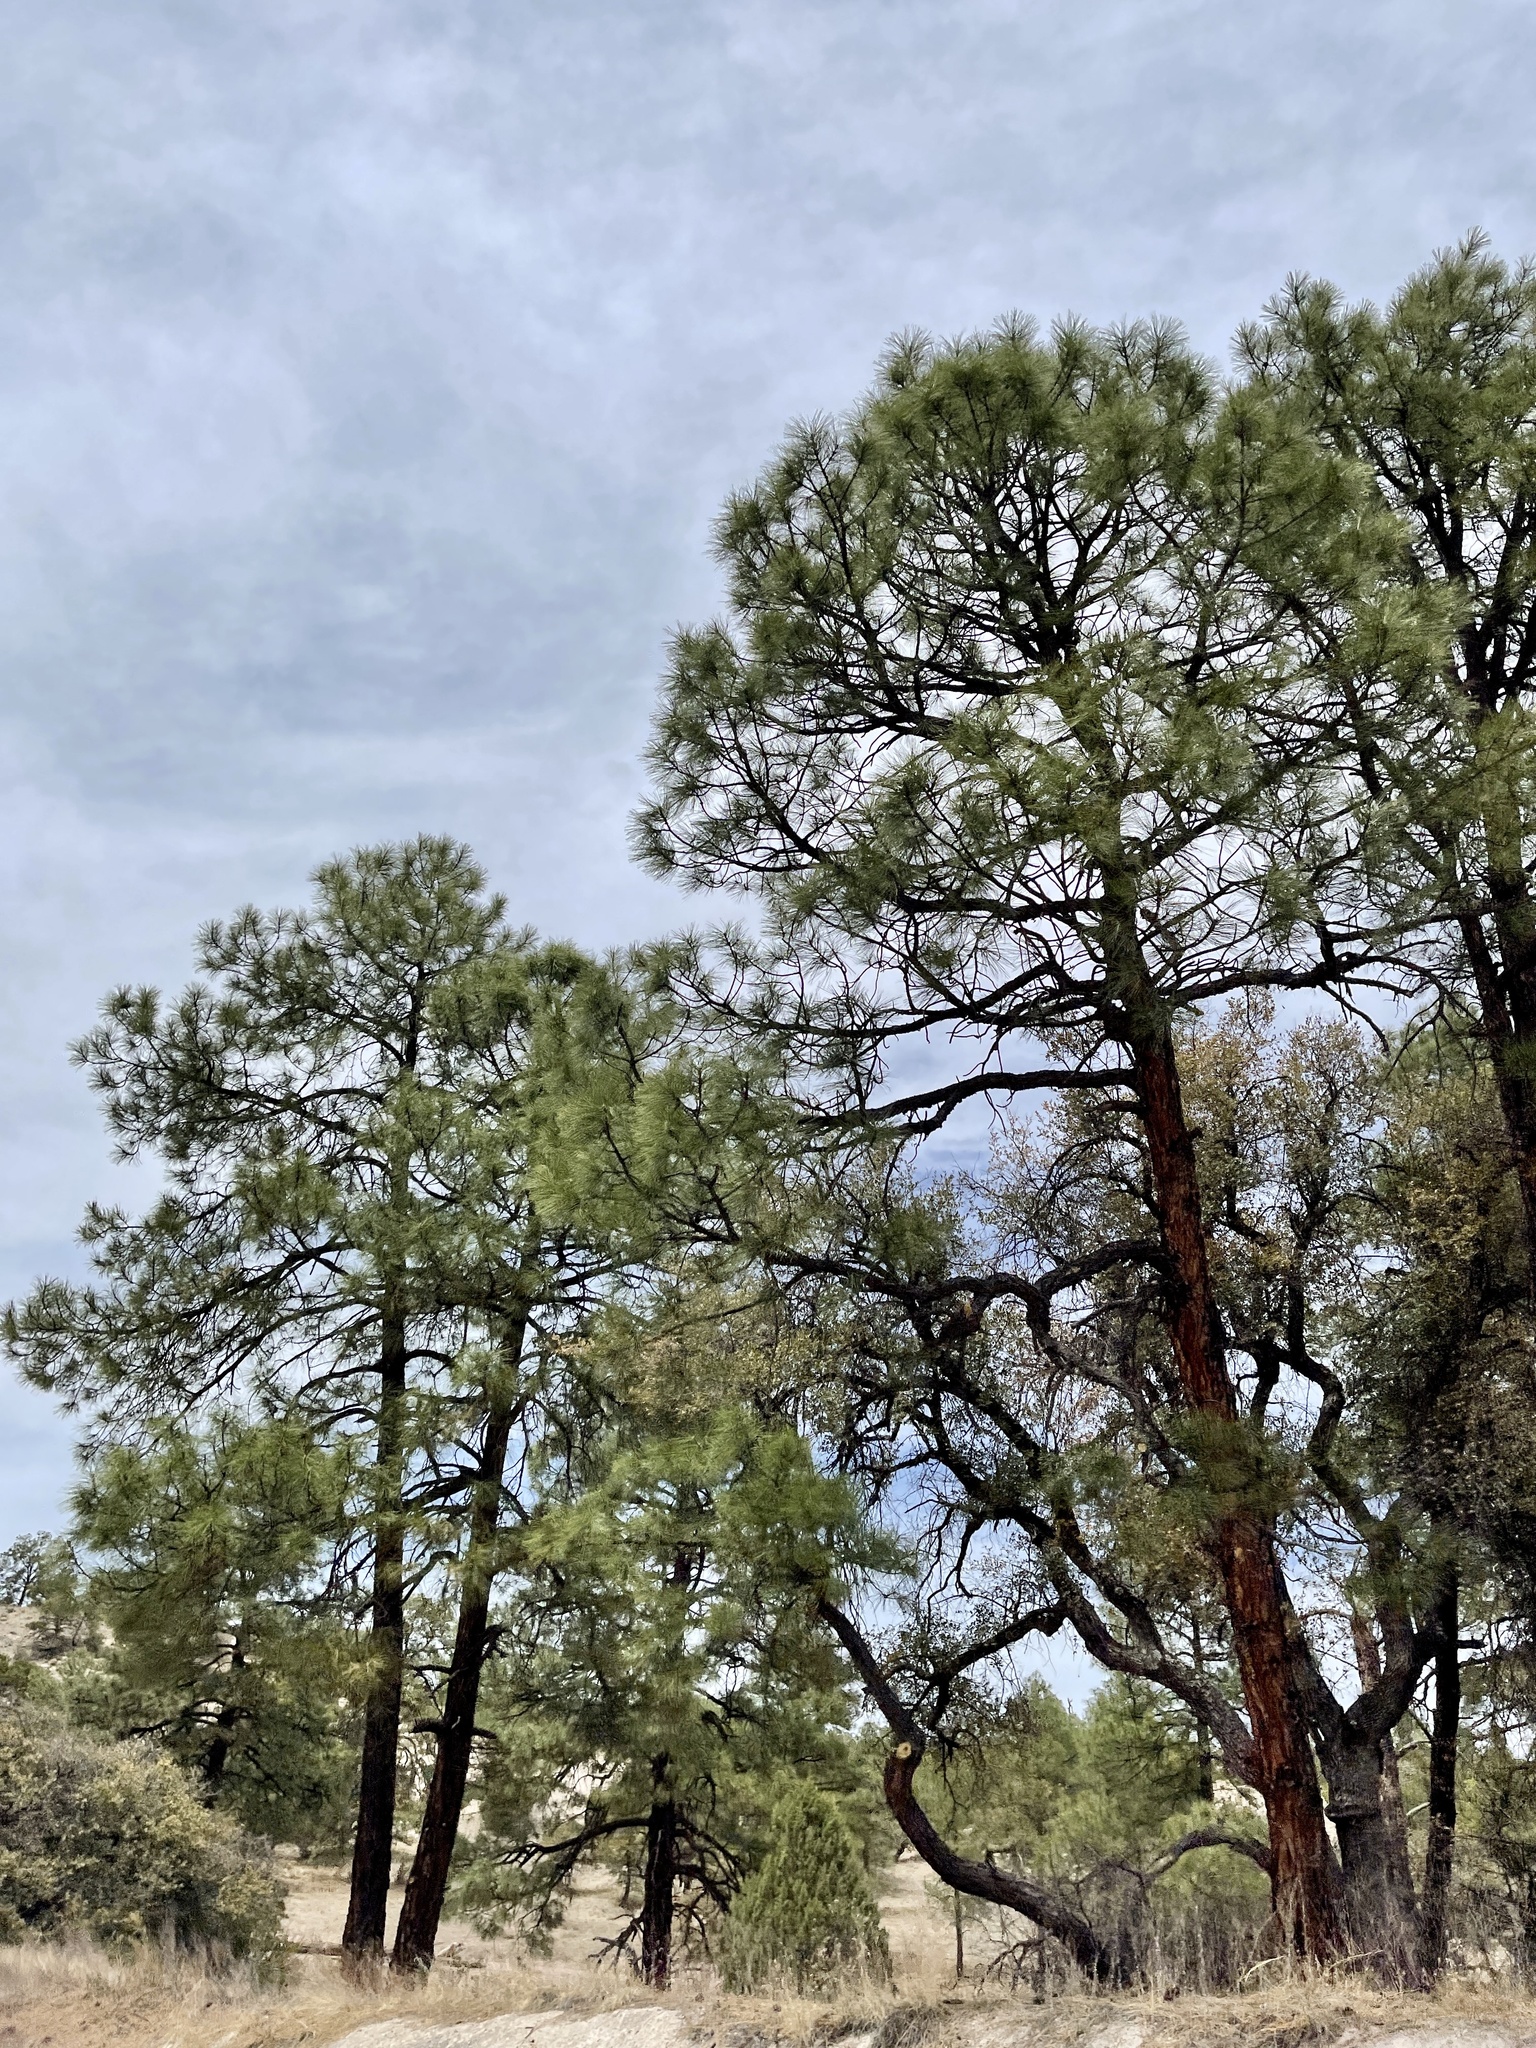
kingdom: Plantae
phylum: Tracheophyta
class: Pinopsida
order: Pinales
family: Pinaceae
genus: Pinus
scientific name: Pinus ponderosa
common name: Western yellow-pine
